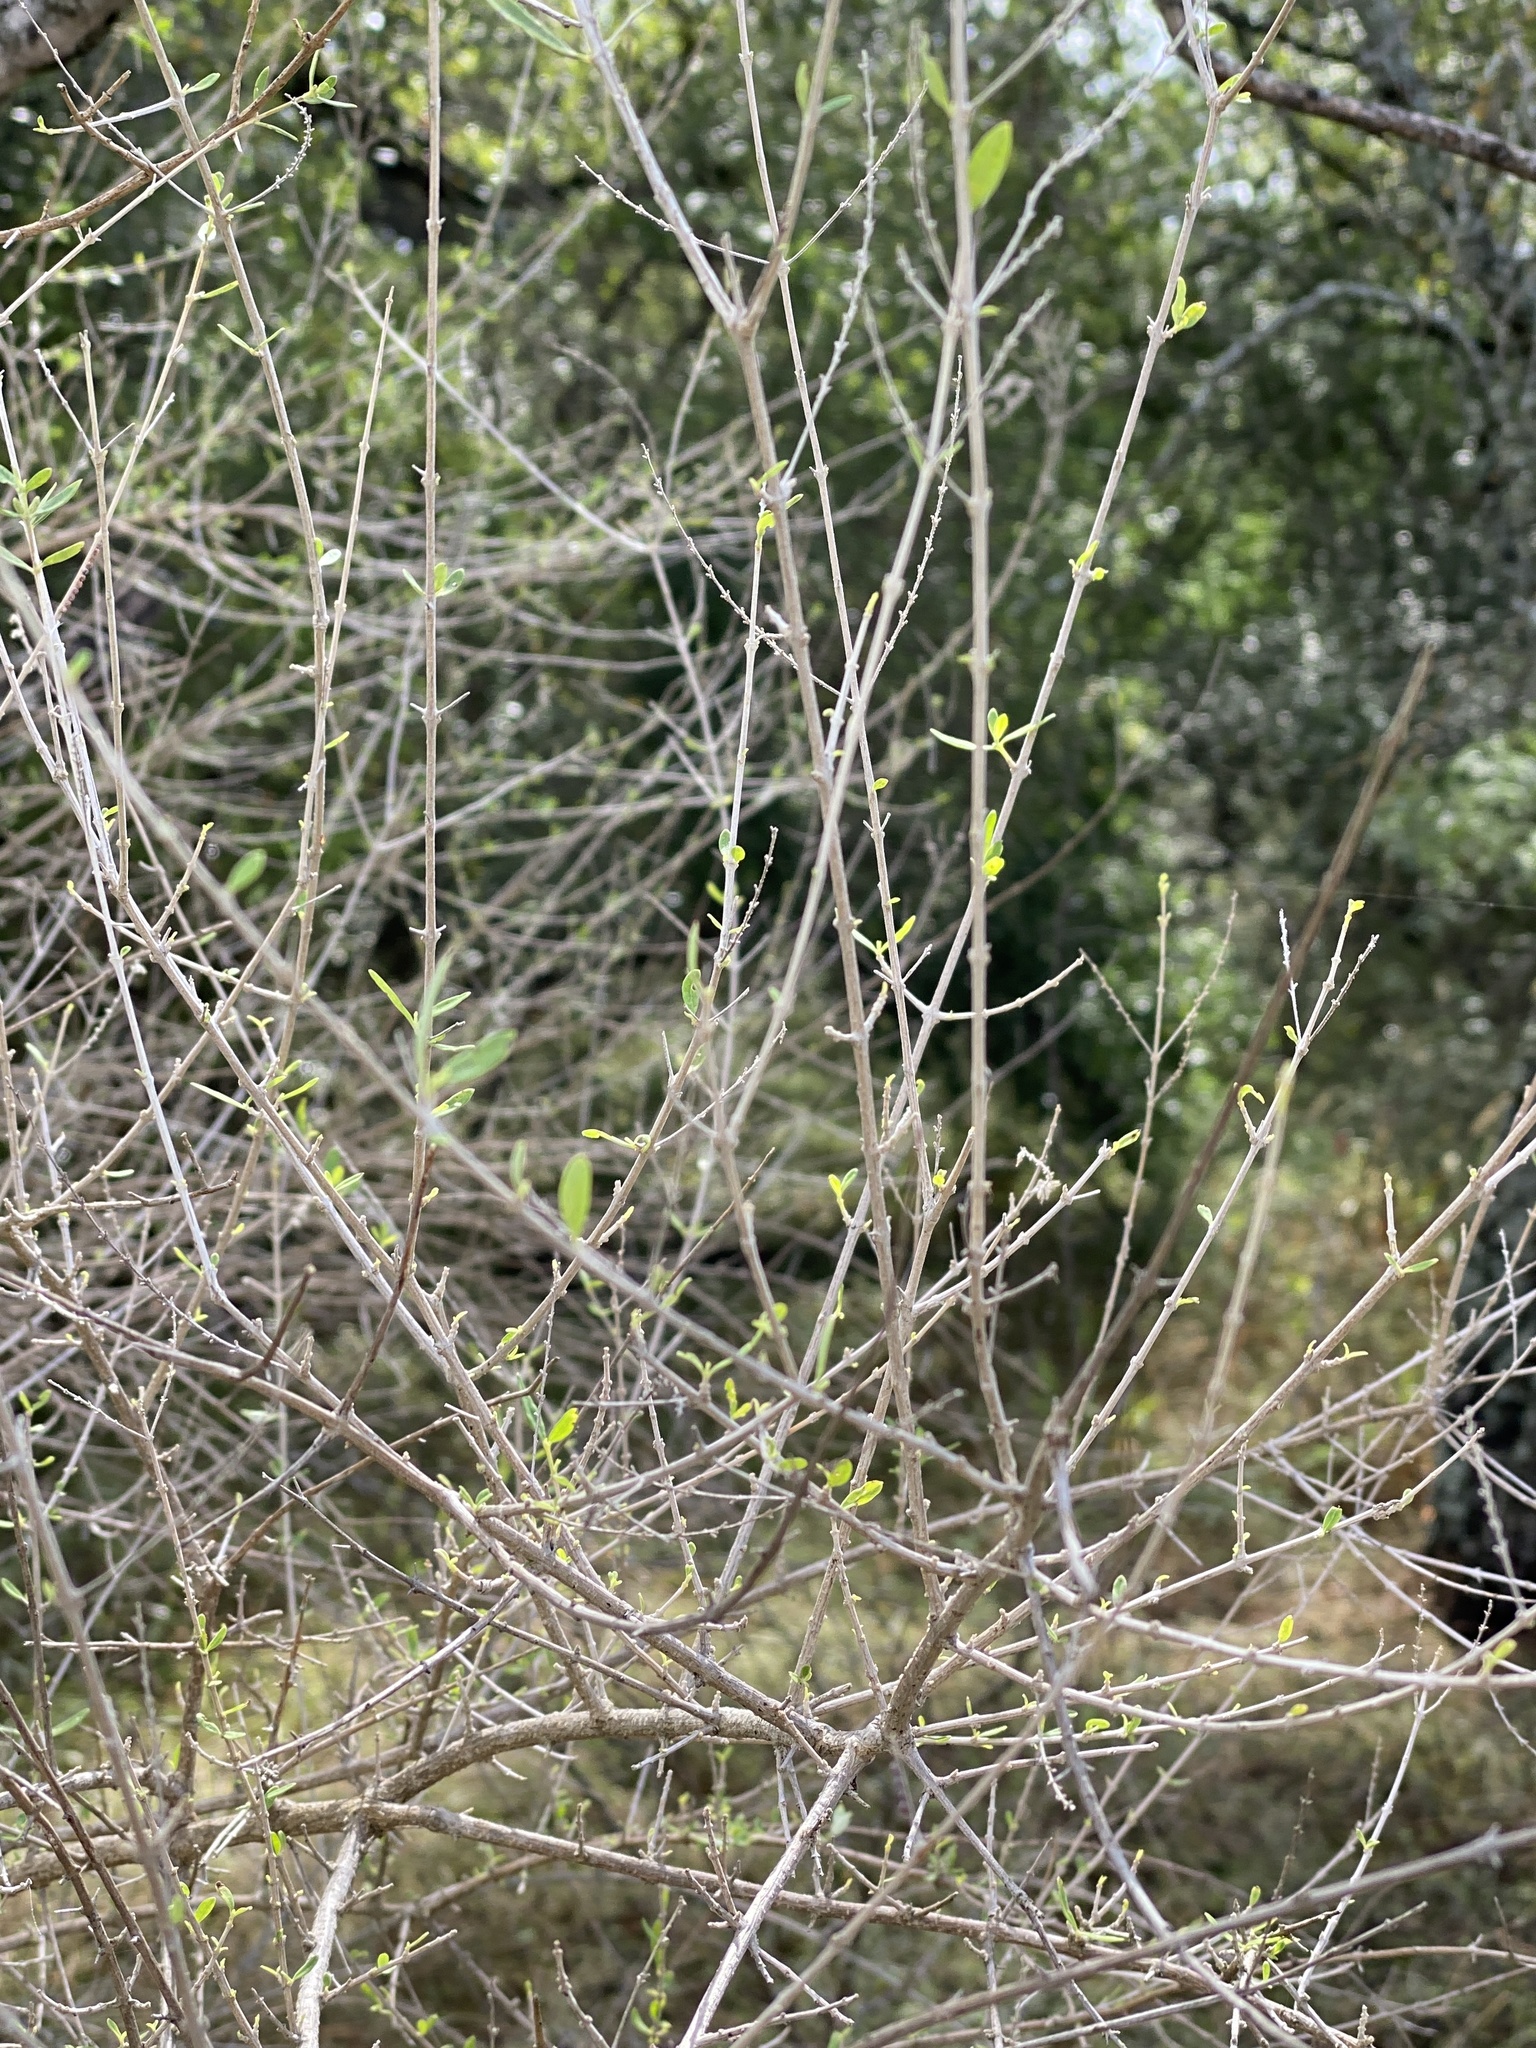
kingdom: Plantae
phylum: Tracheophyta
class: Magnoliopsida
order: Lamiales
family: Verbenaceae
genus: Aloysia
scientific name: Aloysia gratissima
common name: Common bee-brush
